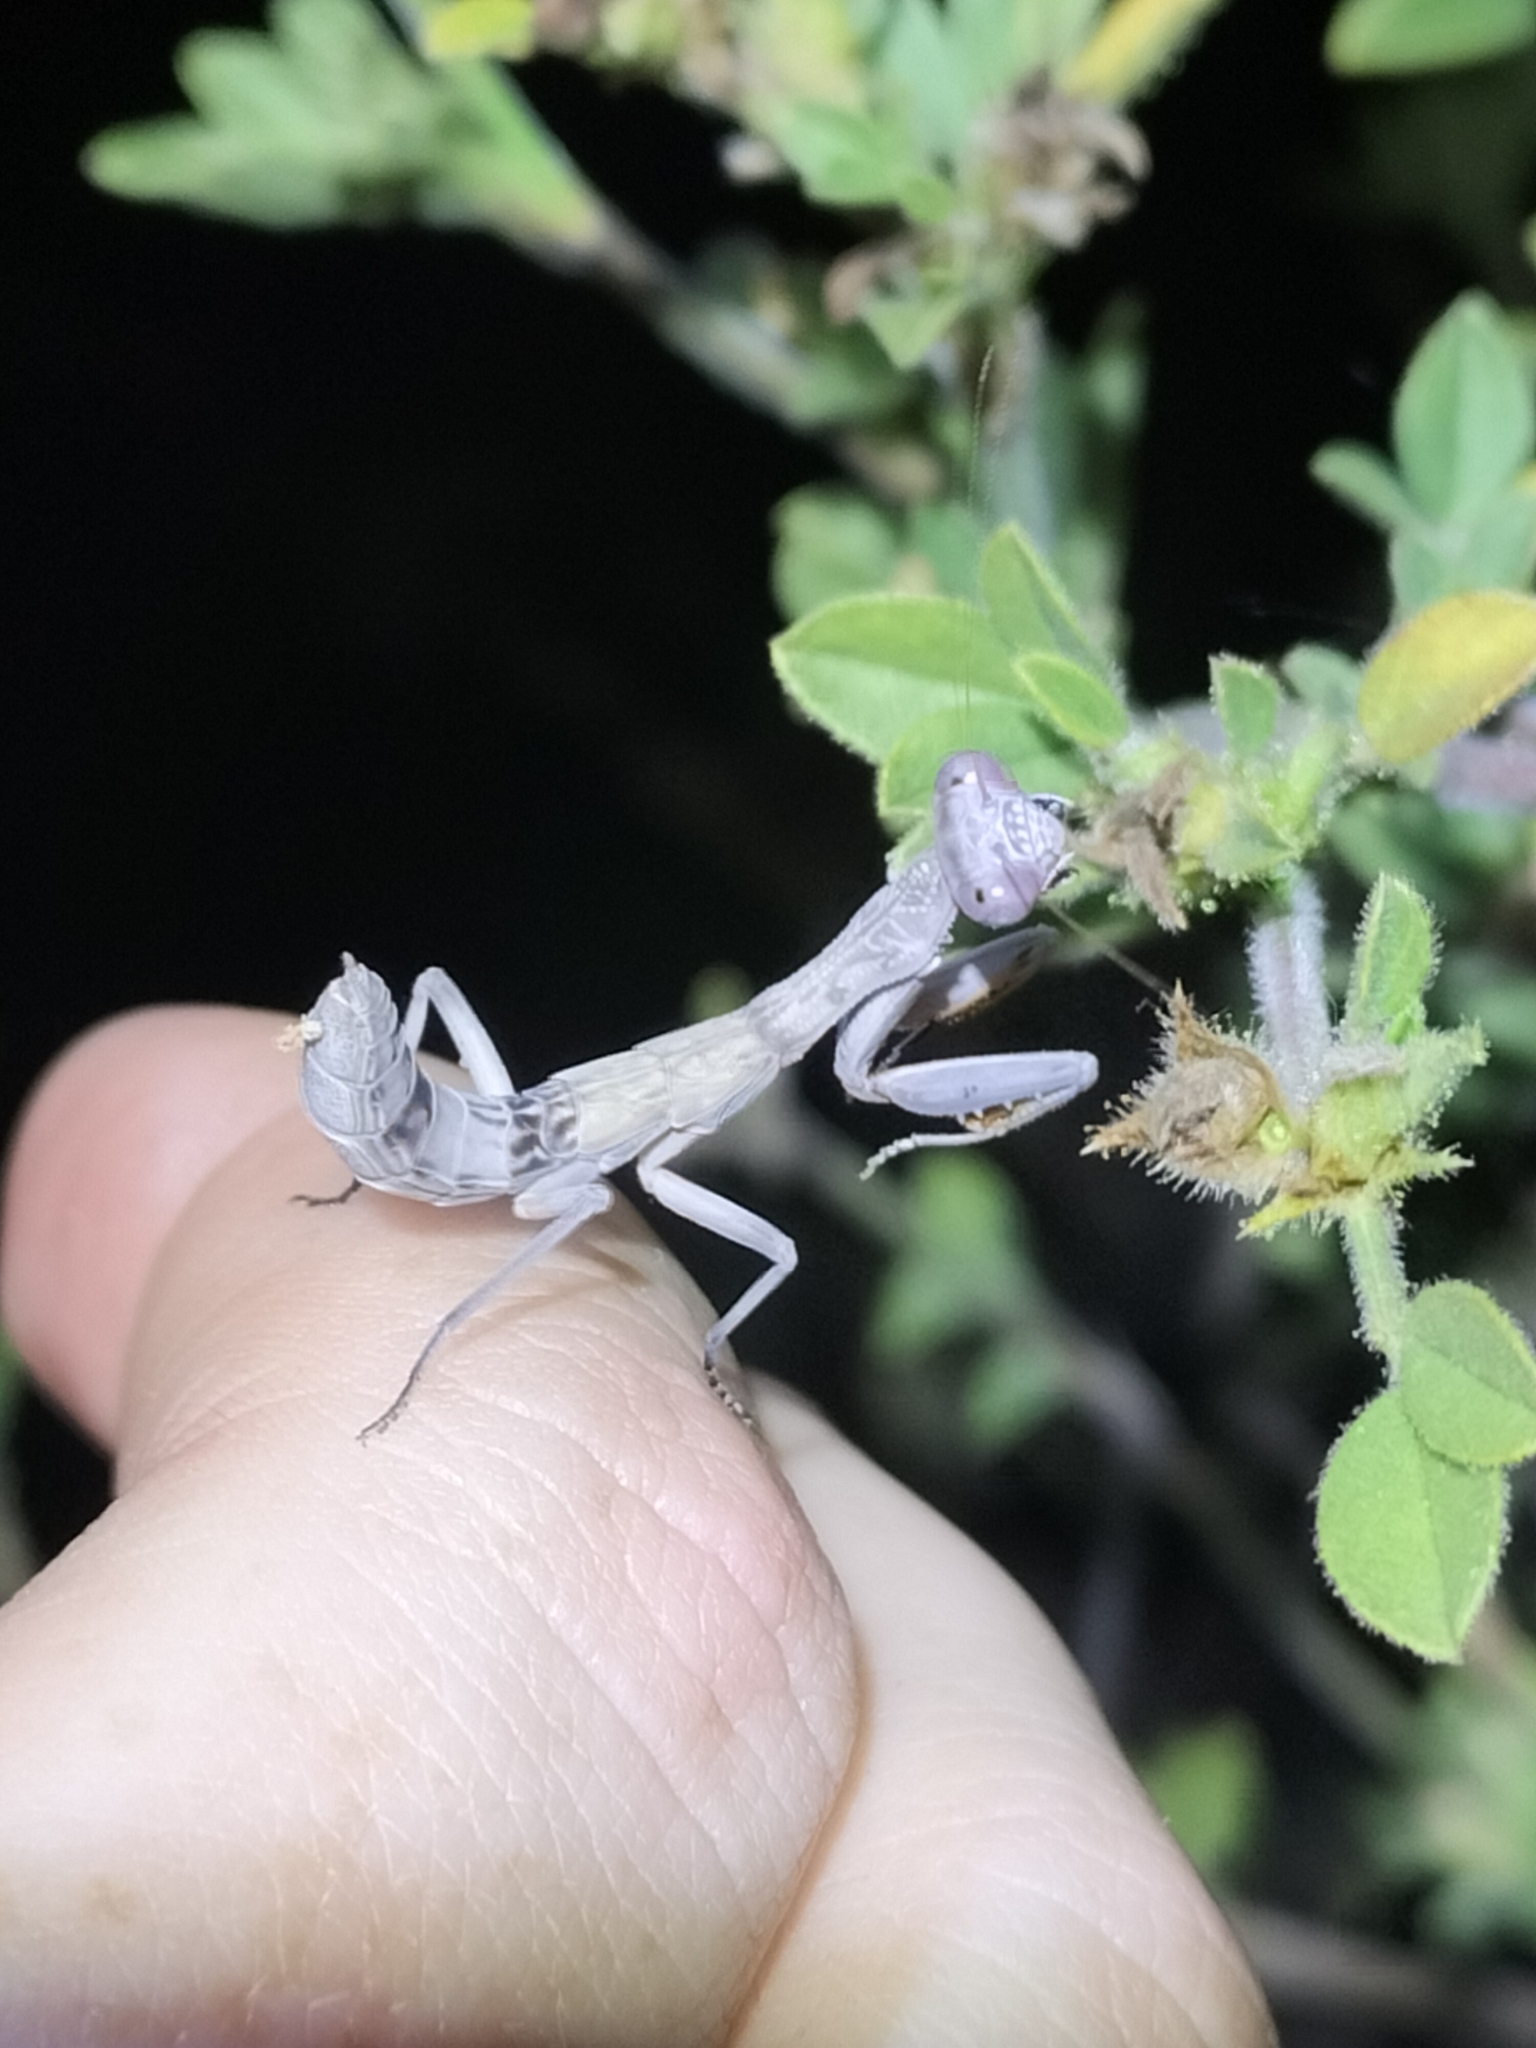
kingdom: Animalia
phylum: Arthropoda
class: Insecta
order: Mantodea
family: Mantidae
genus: Sphodropoda
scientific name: Sphodropoda tristis
